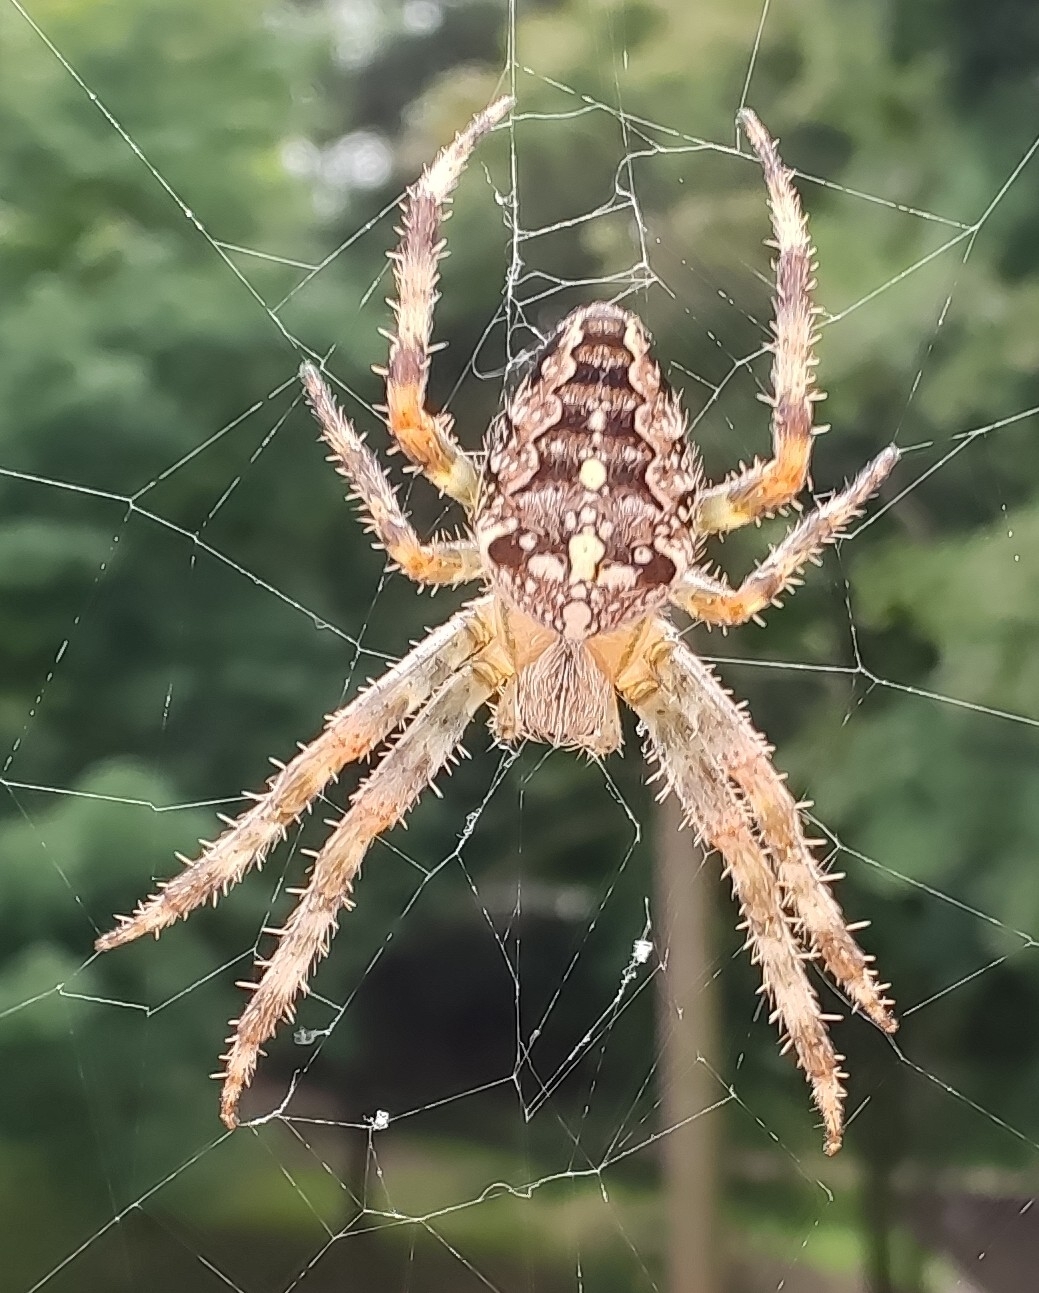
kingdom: Animalia
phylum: Arthropoda
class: Arachnida
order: Araneae
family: Araneidae
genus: Araneus
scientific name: Araneus diadematus
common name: Cross orbweaver
